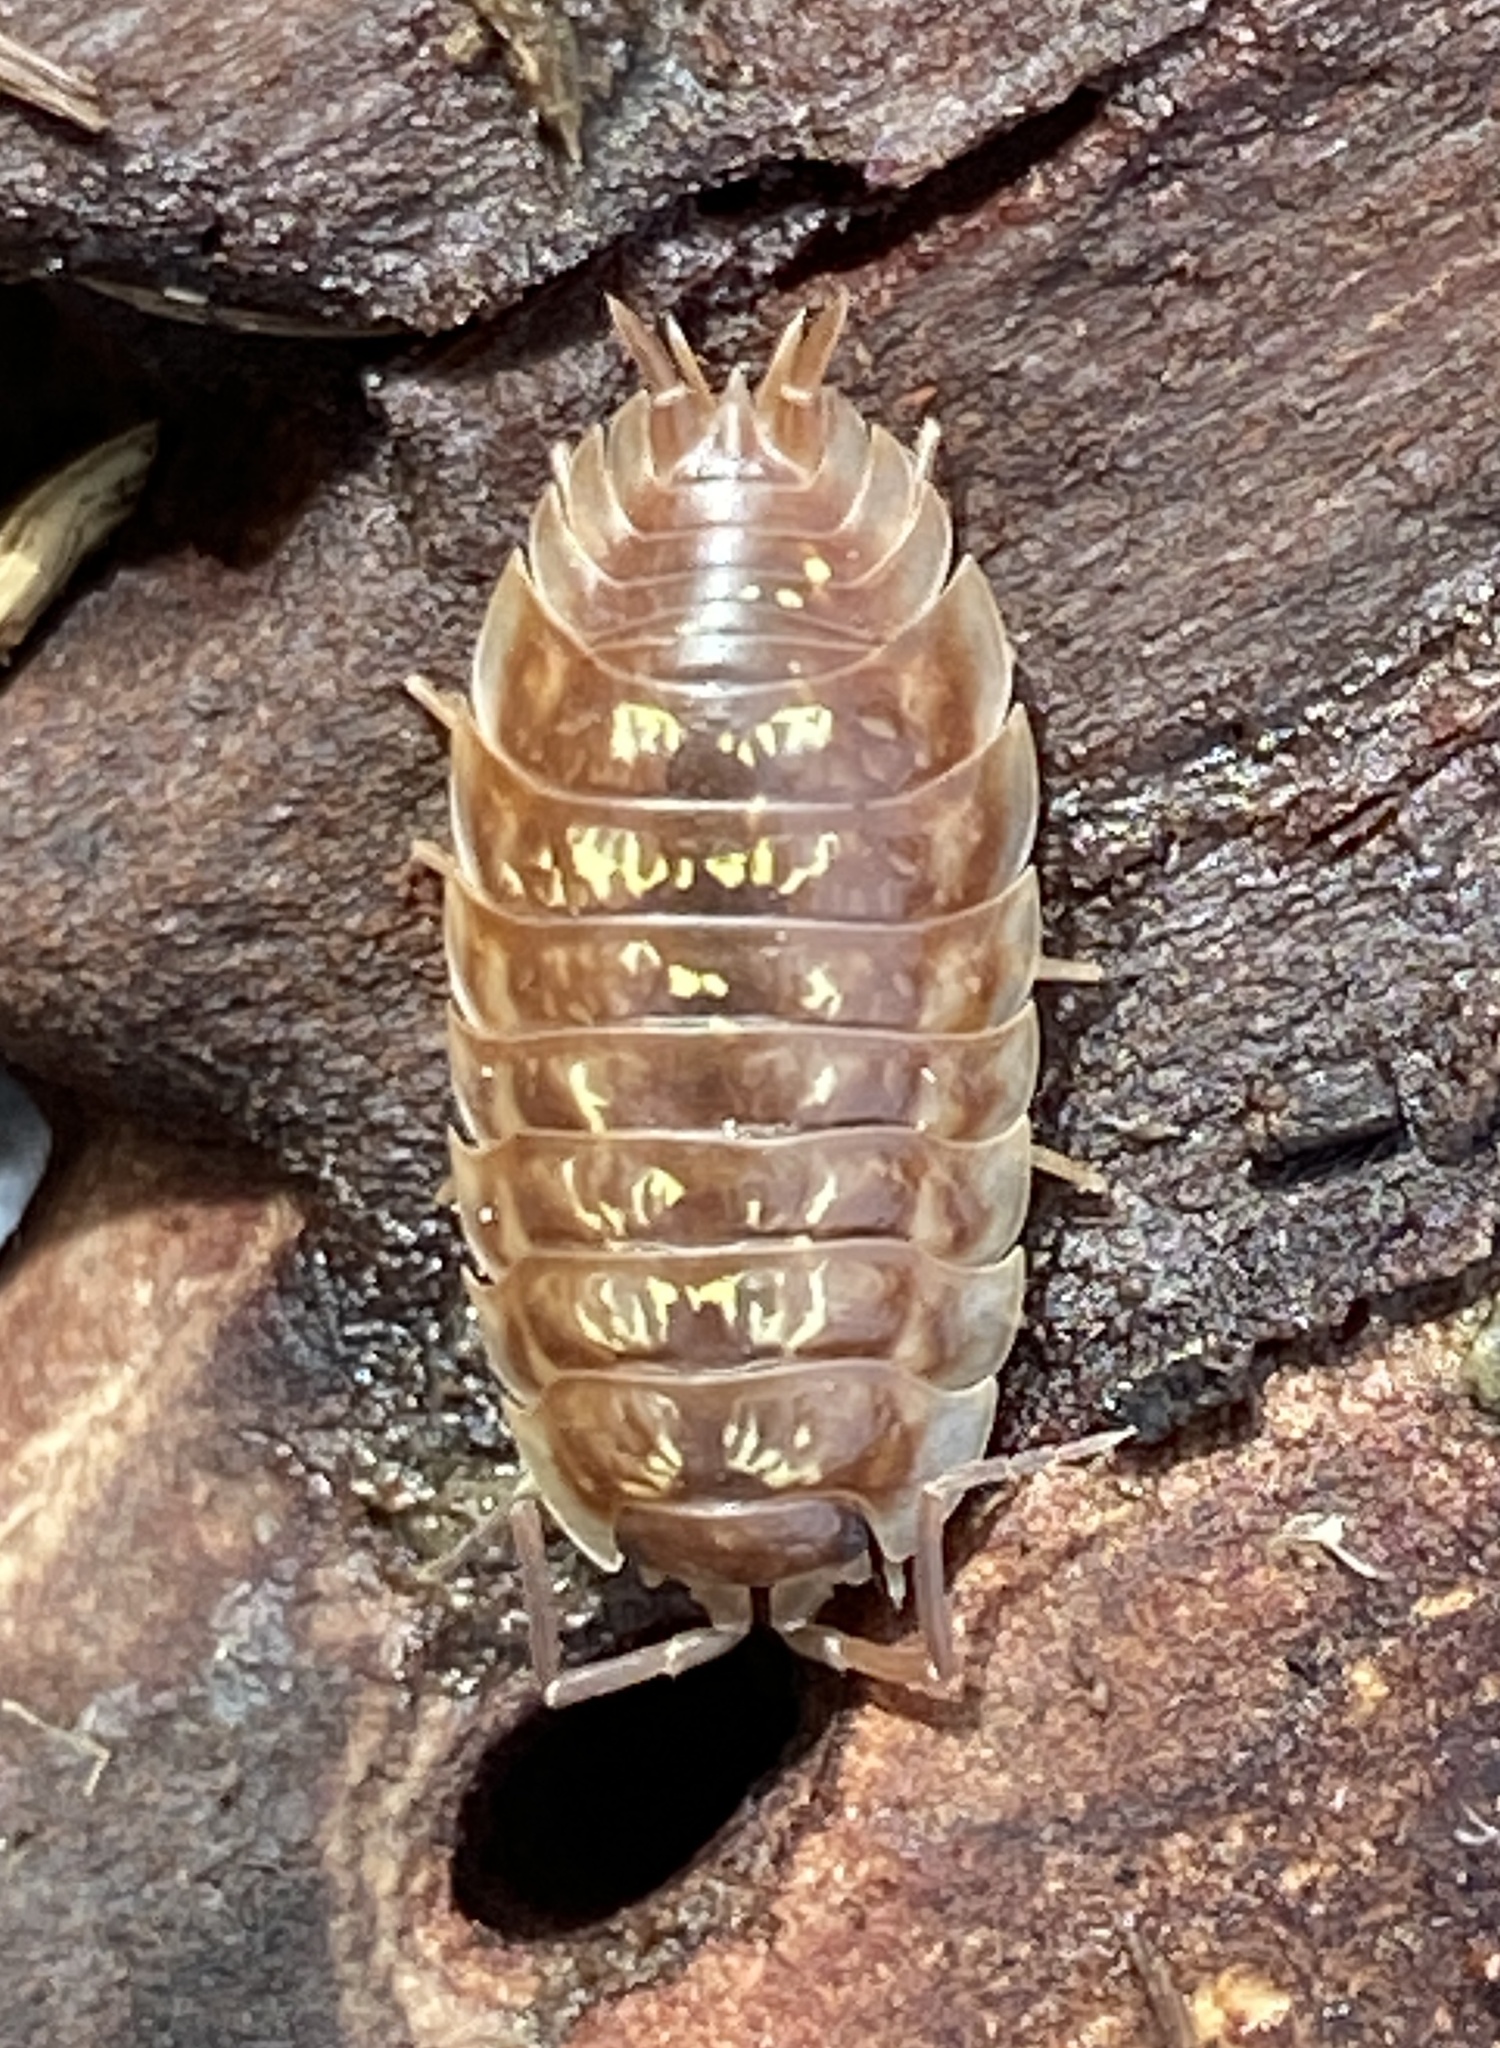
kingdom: Animalia
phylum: Arthropoda
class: Malacostraca
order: Isopoda
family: Oniscidae
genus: Oniscus
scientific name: Oniscus asellus
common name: Common shiny woodlouse
